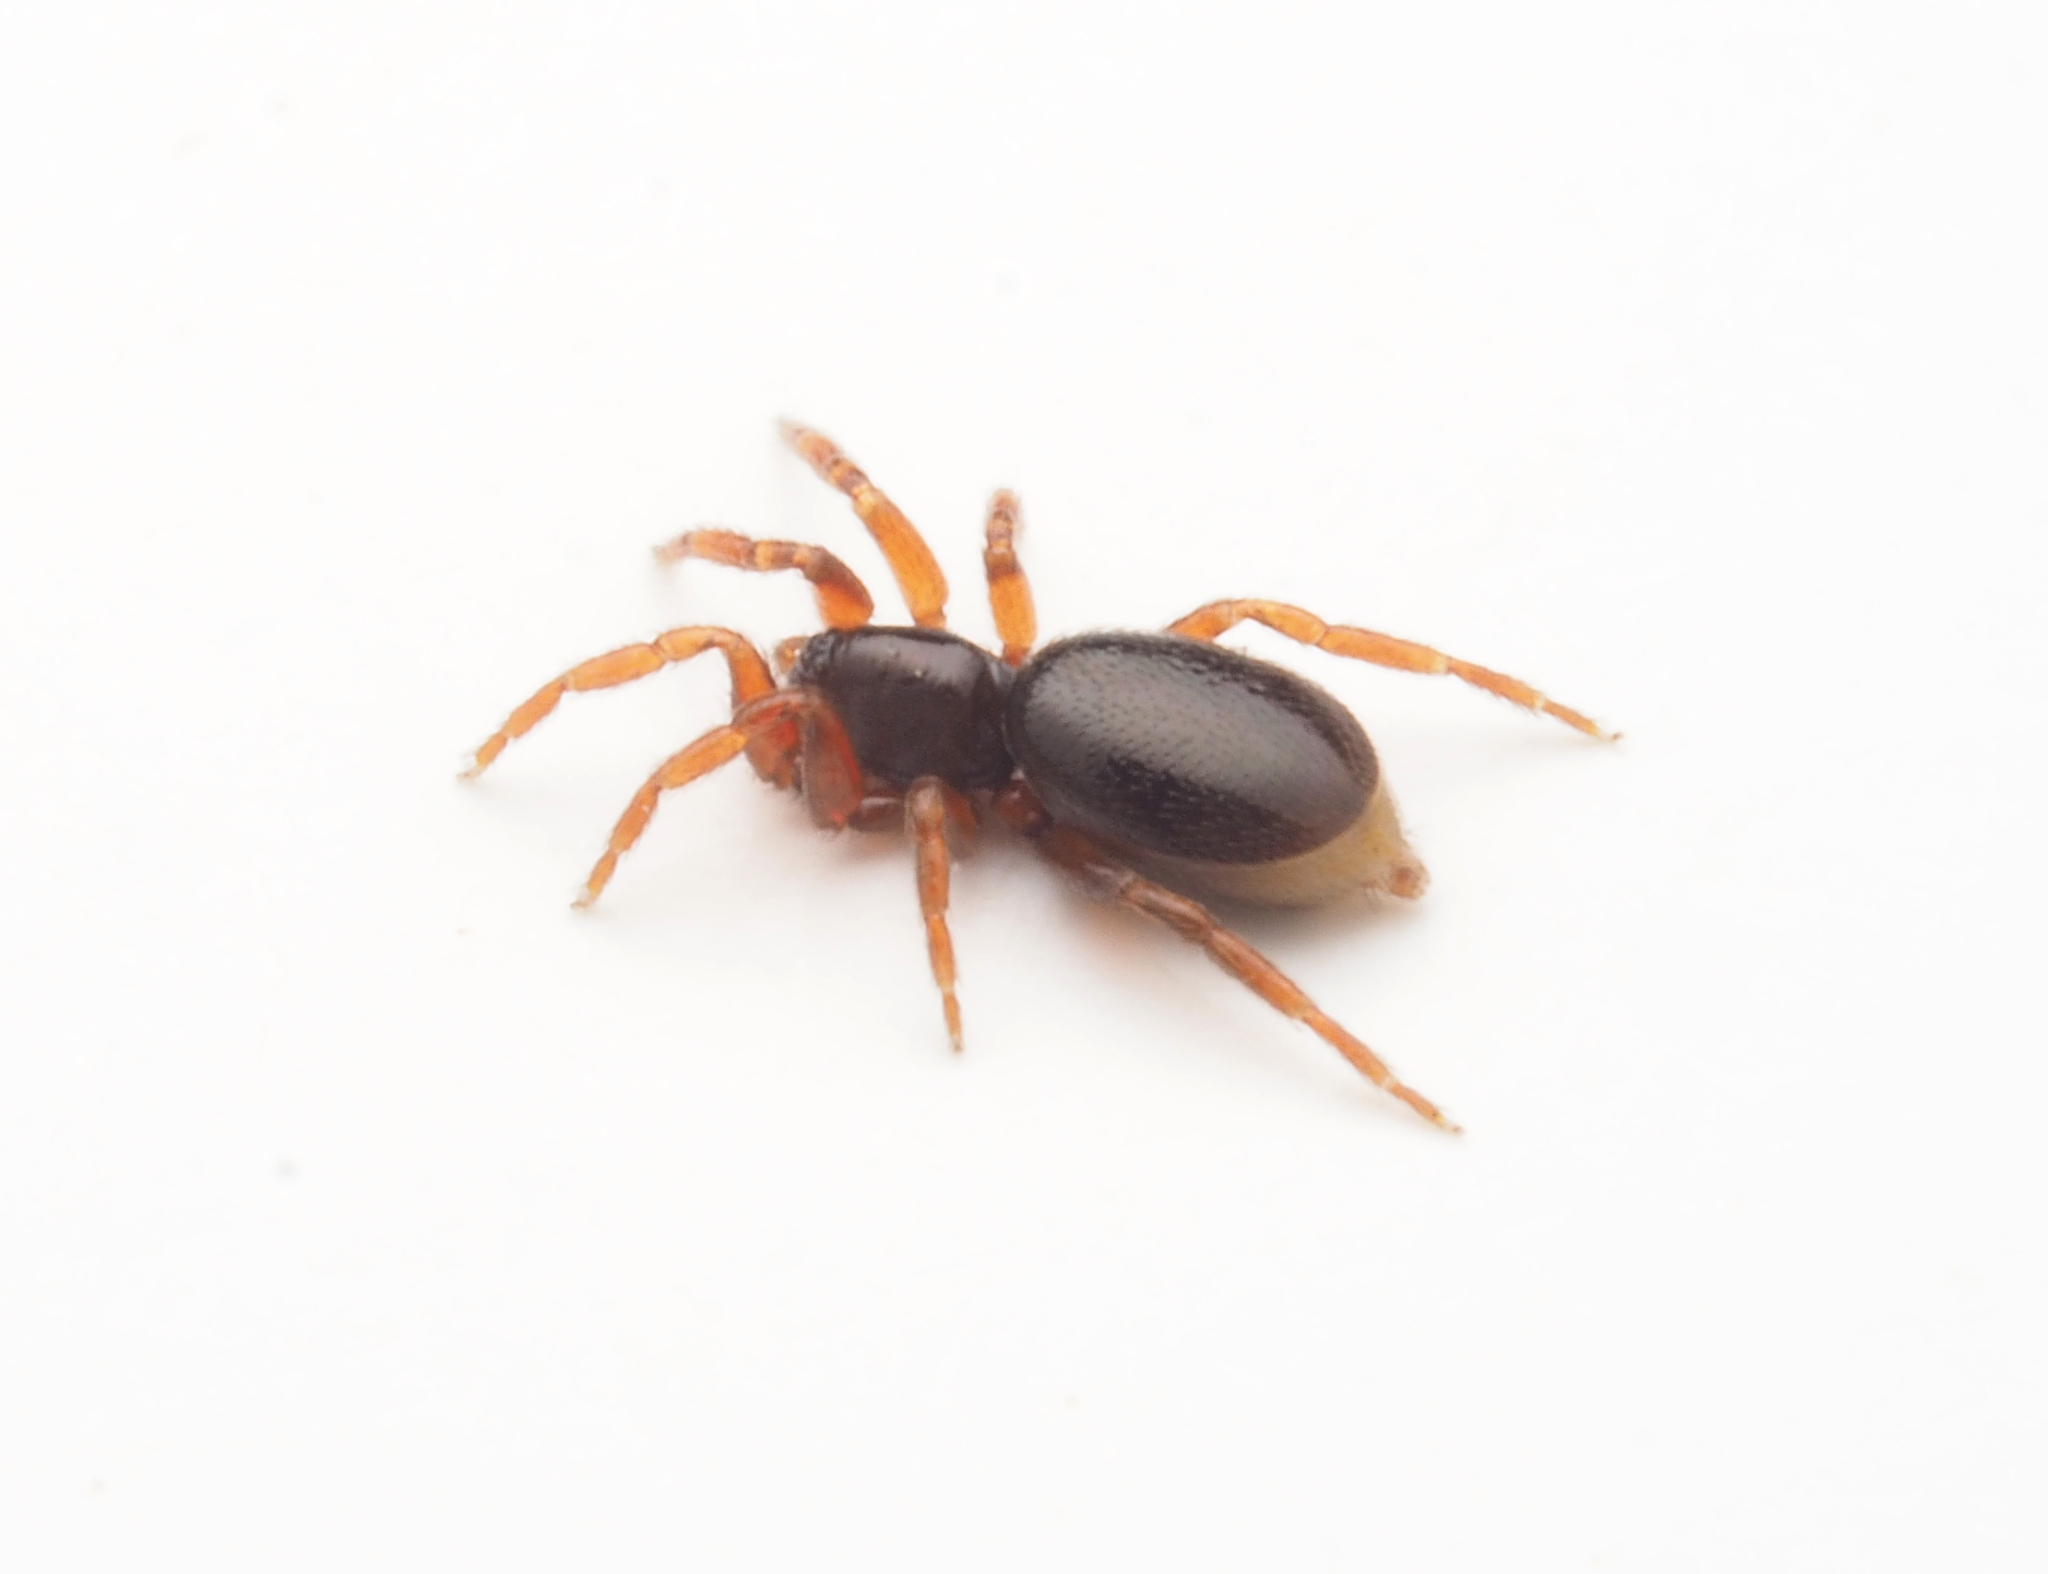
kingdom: Animalia
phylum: Arthropoda
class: Arachnida
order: Araneae
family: Oonopidae
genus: Opopaea
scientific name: Opopaea
